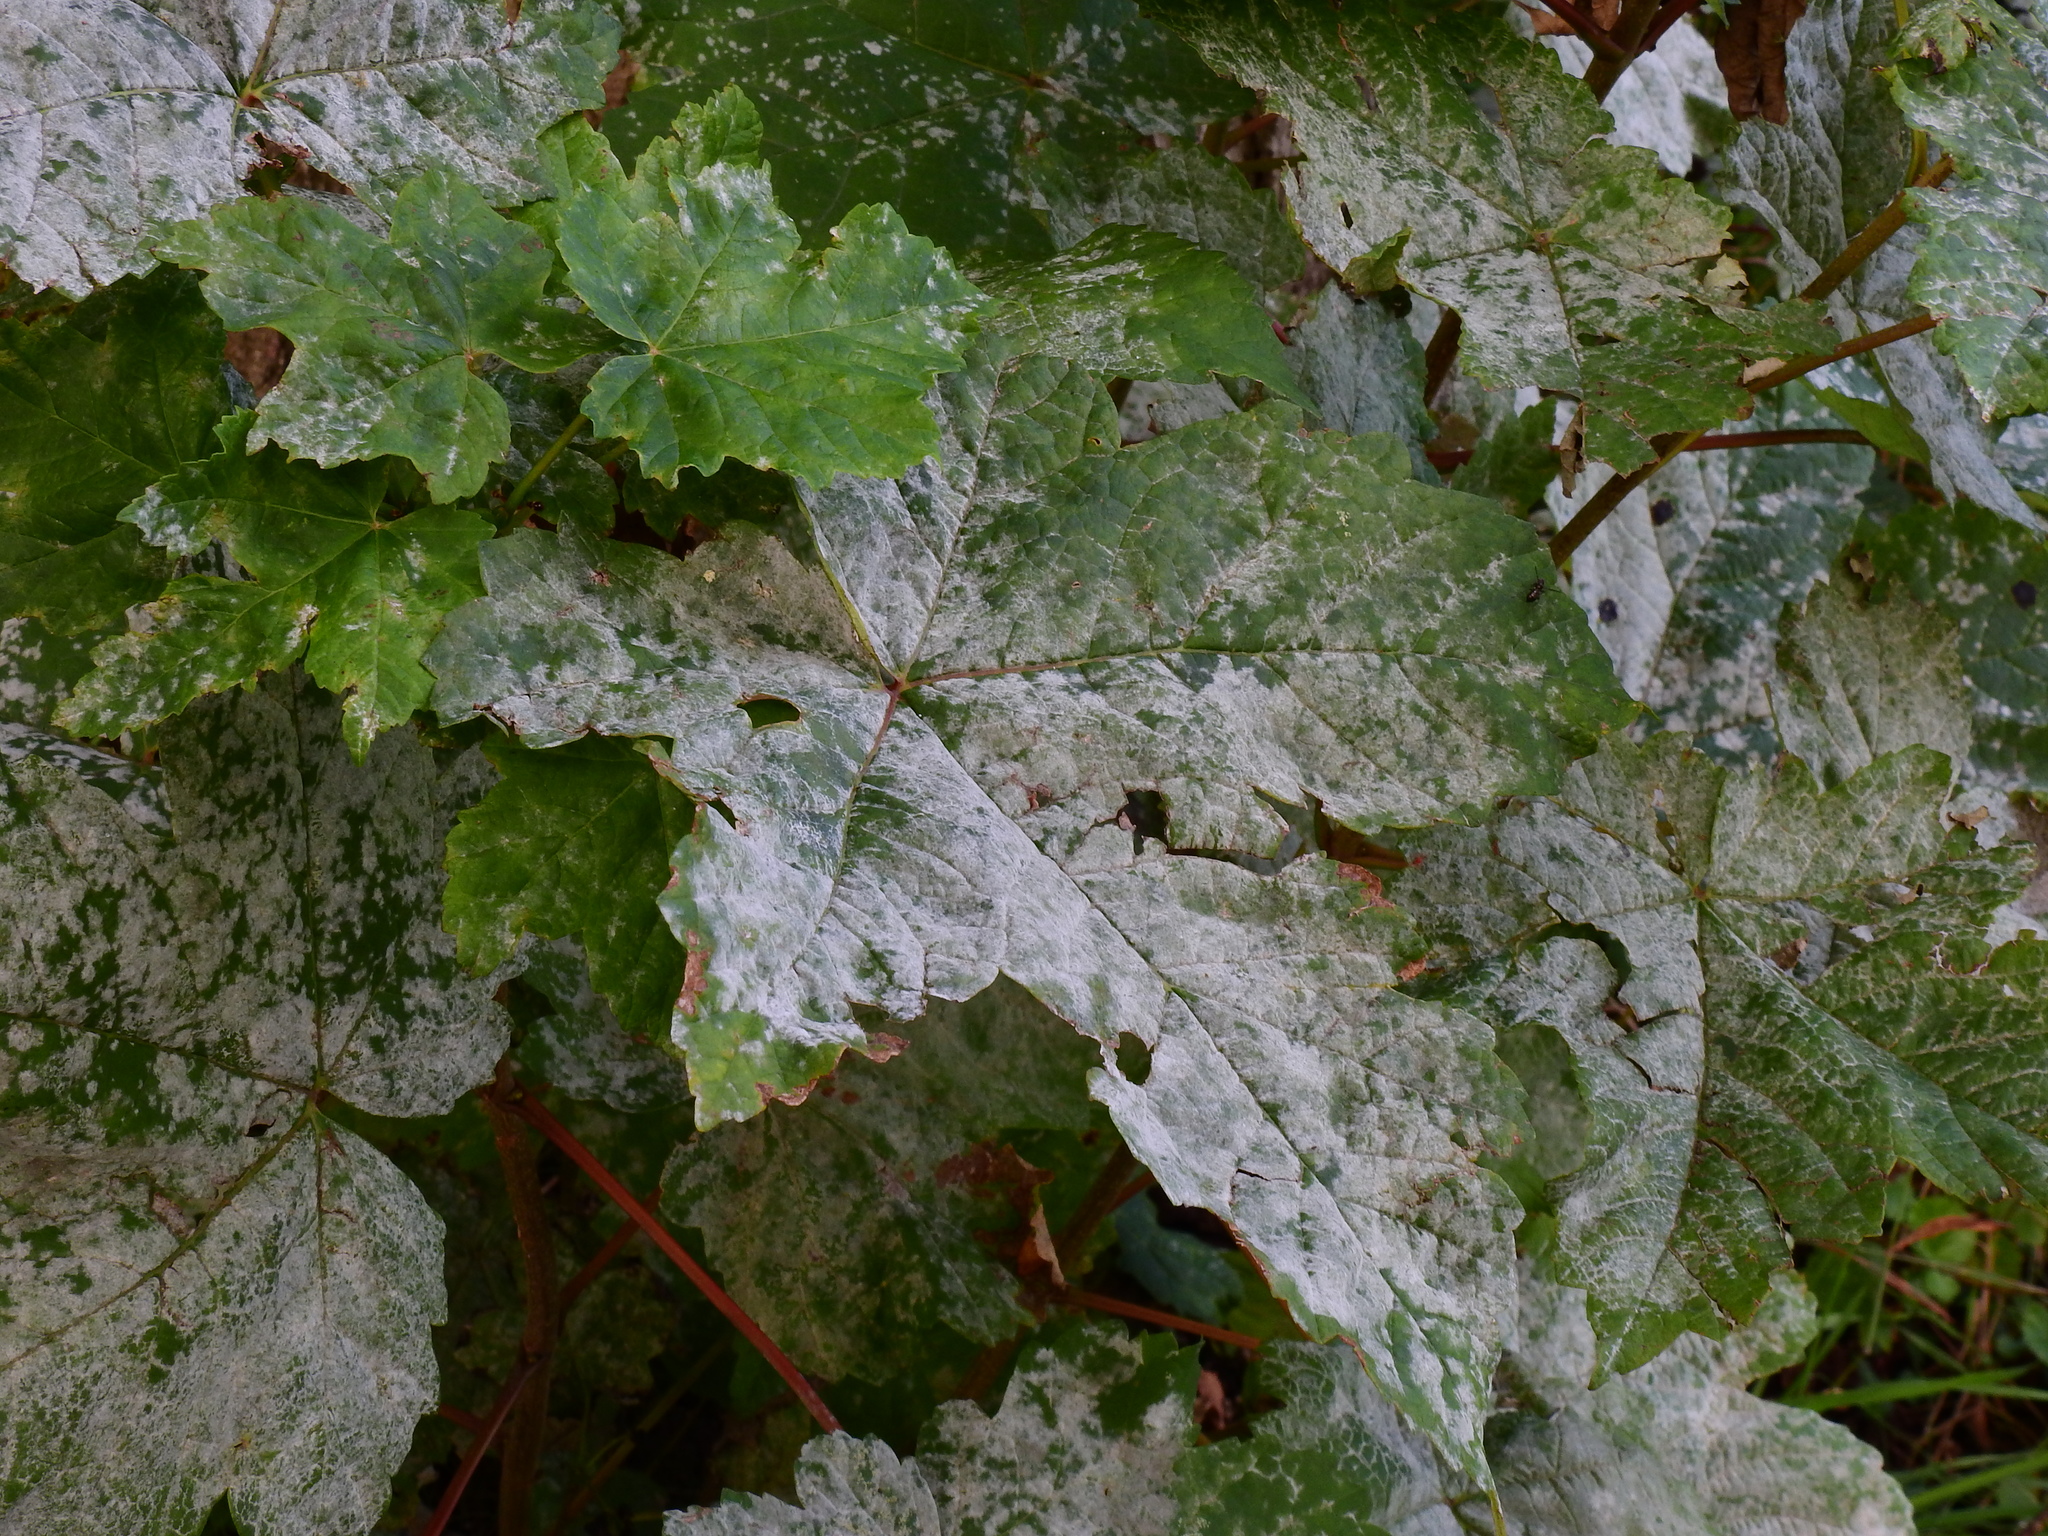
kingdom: Fungi
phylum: Ascomycota
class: Leotiomycetes
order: Helotiales
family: Erysiphaceae
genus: Sawadaea
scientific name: Sawadaea bicornis
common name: Maple mildew
